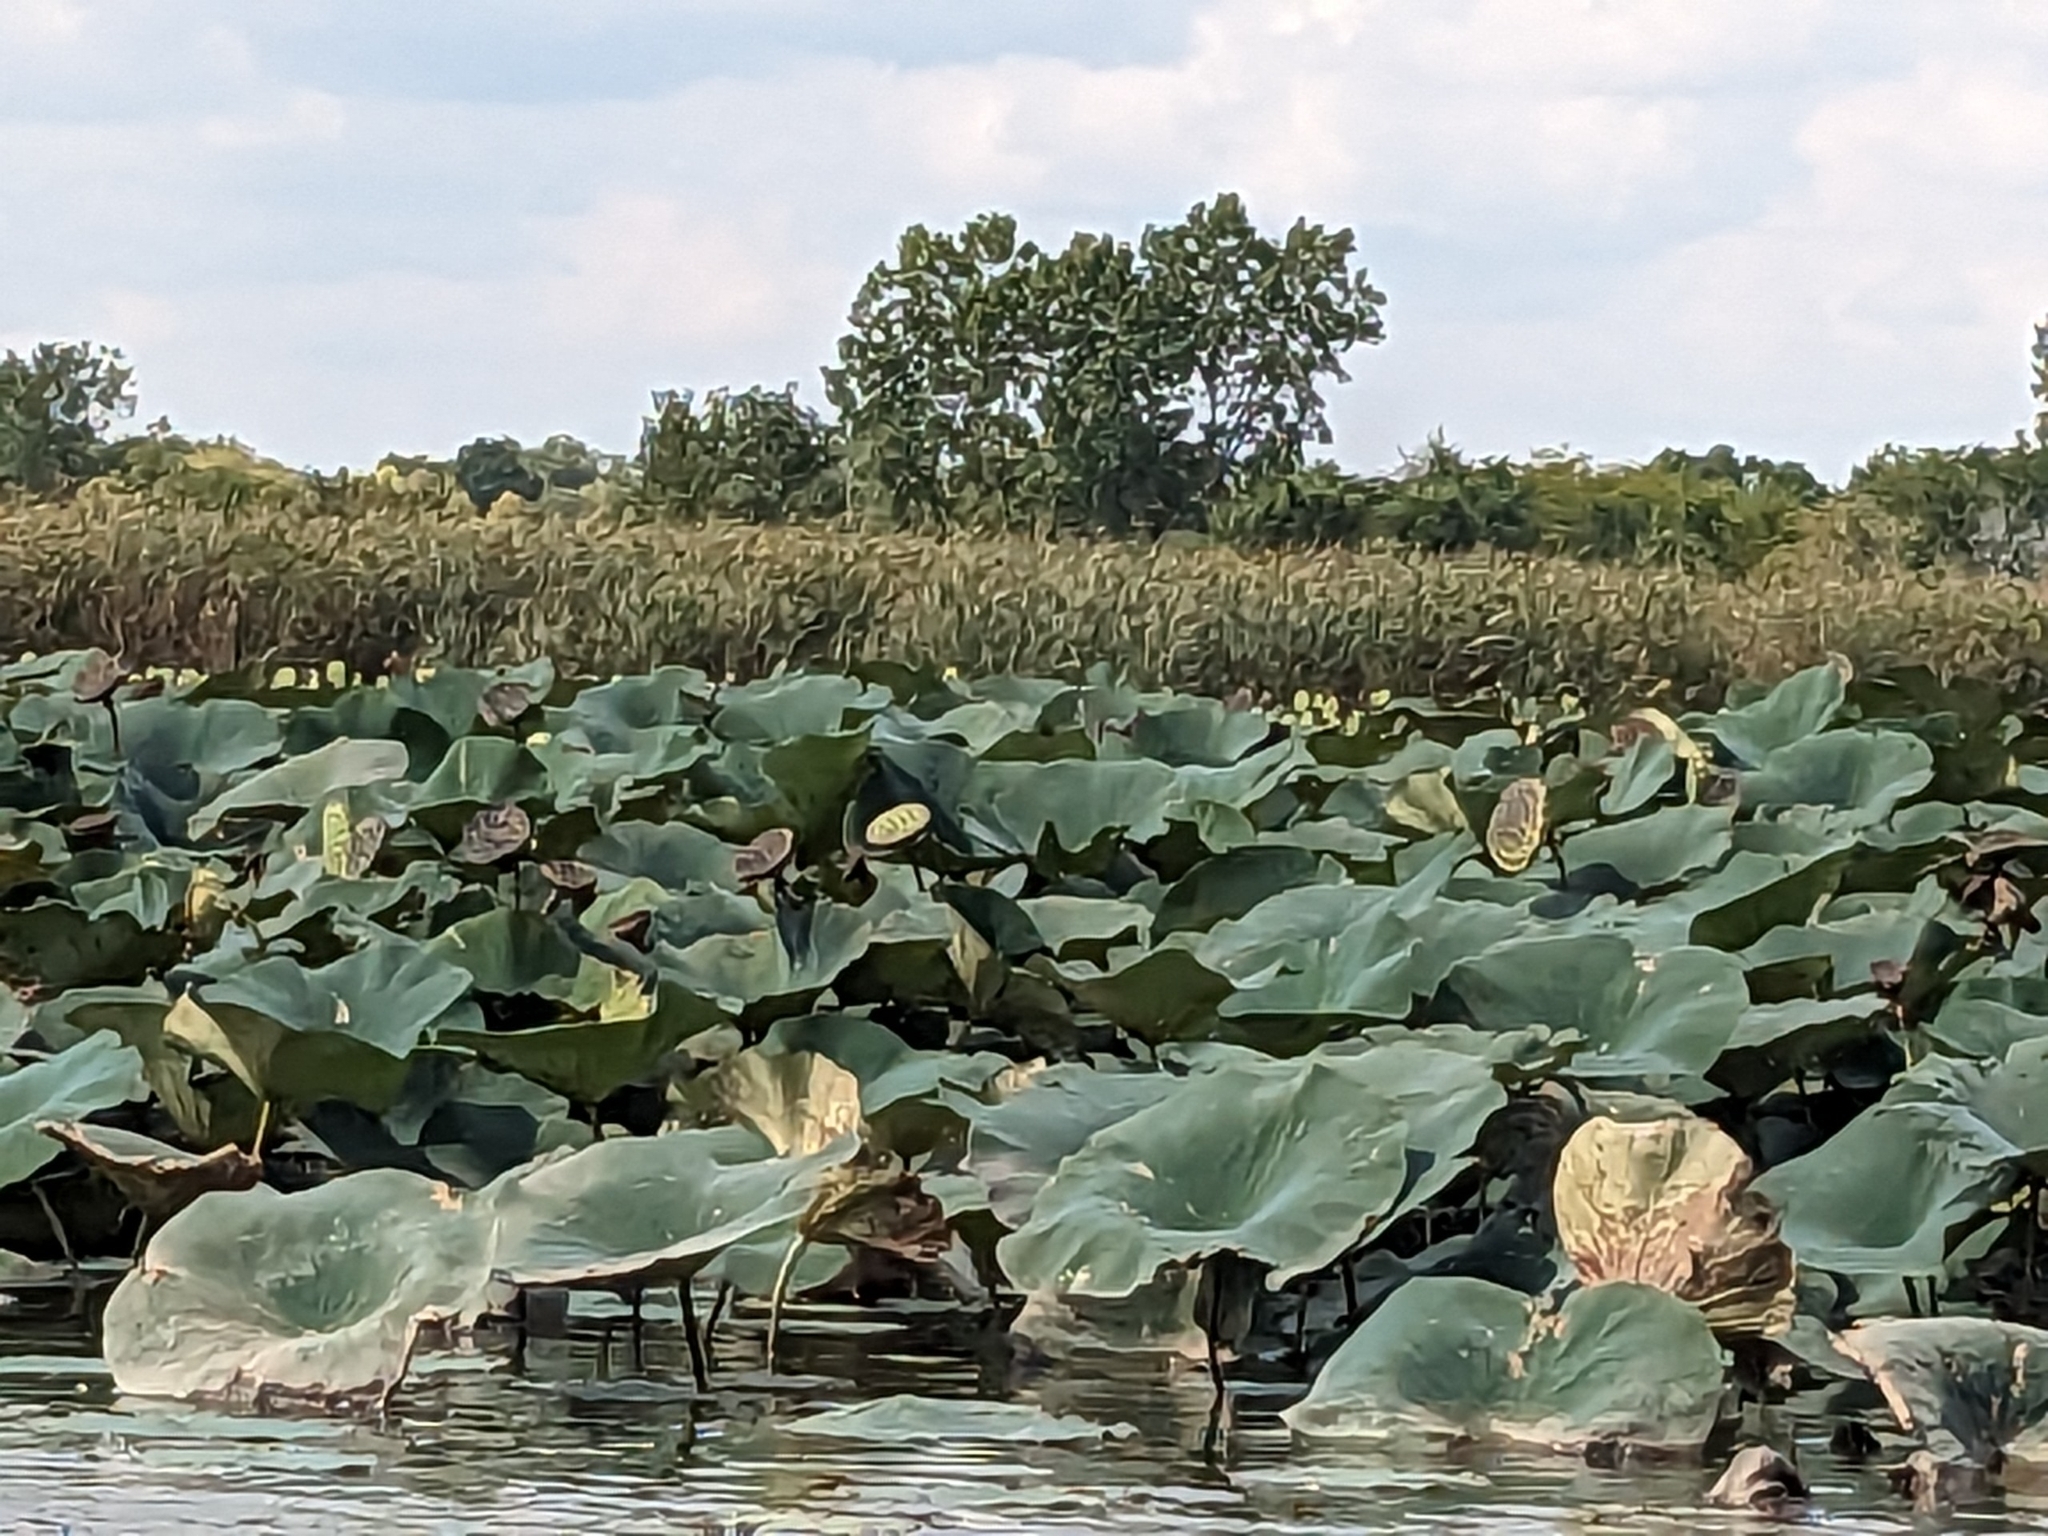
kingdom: Plantae
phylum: Tracheophyta
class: Magnoliopsida
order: Proteales
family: Nelumbonaceae
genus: Nelumbo
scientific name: Nelumbo lutea
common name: American lotus
